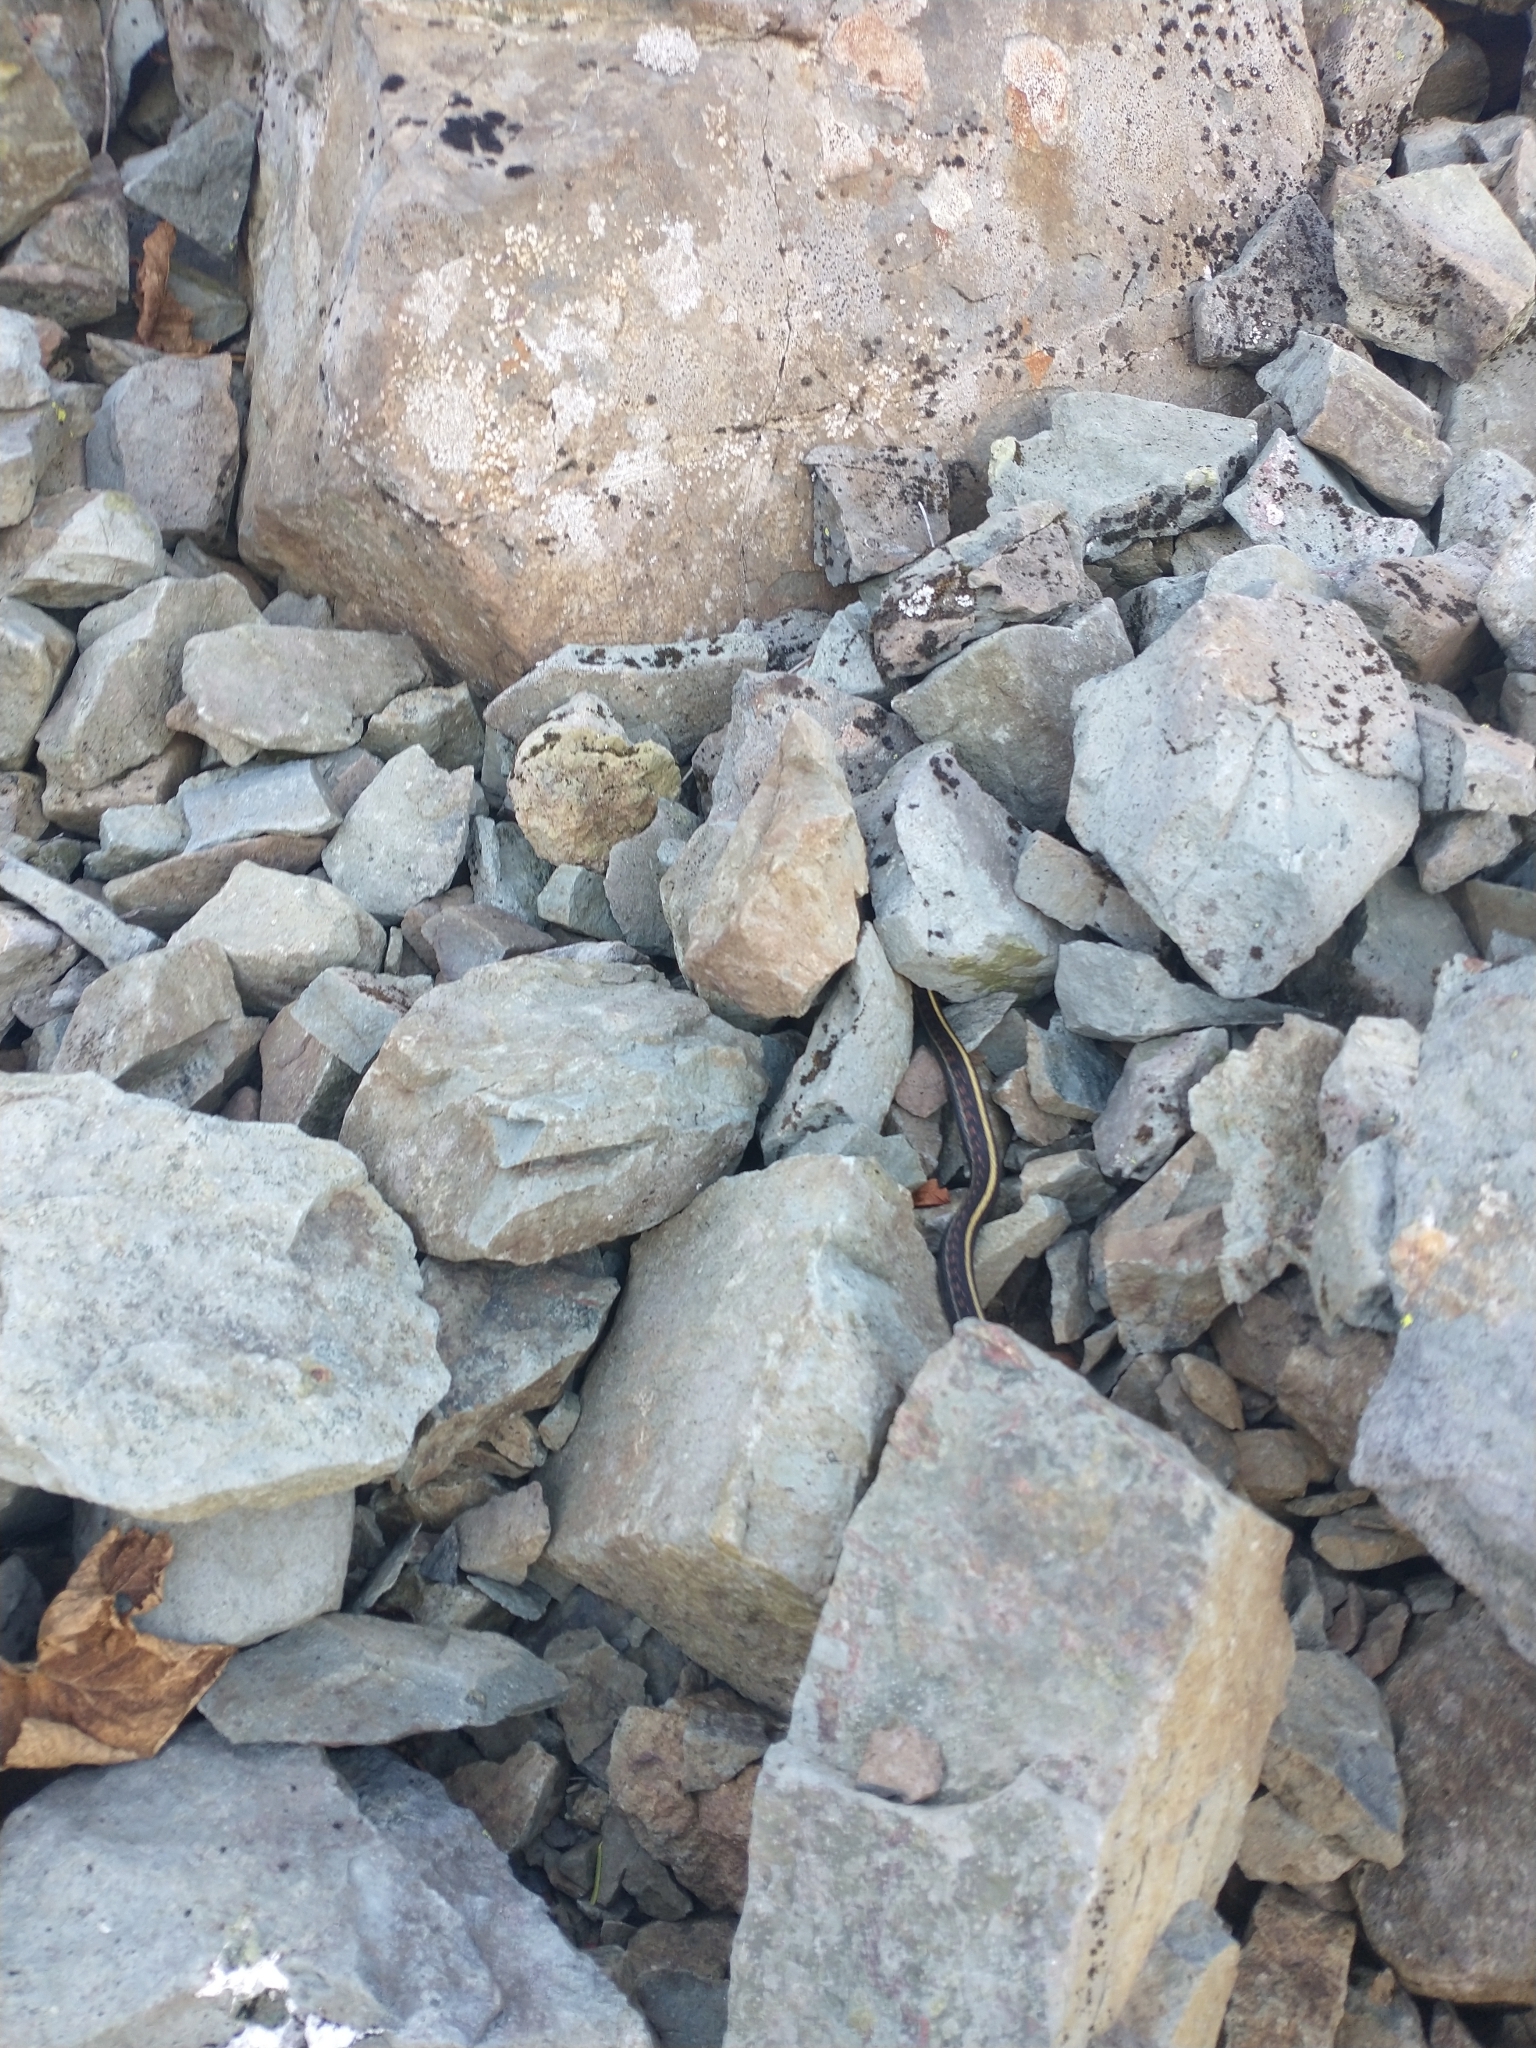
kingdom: Animalia
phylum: Chordata
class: Squamata
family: Colubridae
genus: Thamnophis
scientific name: Thamnophis sirtalis
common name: Common garter snake
